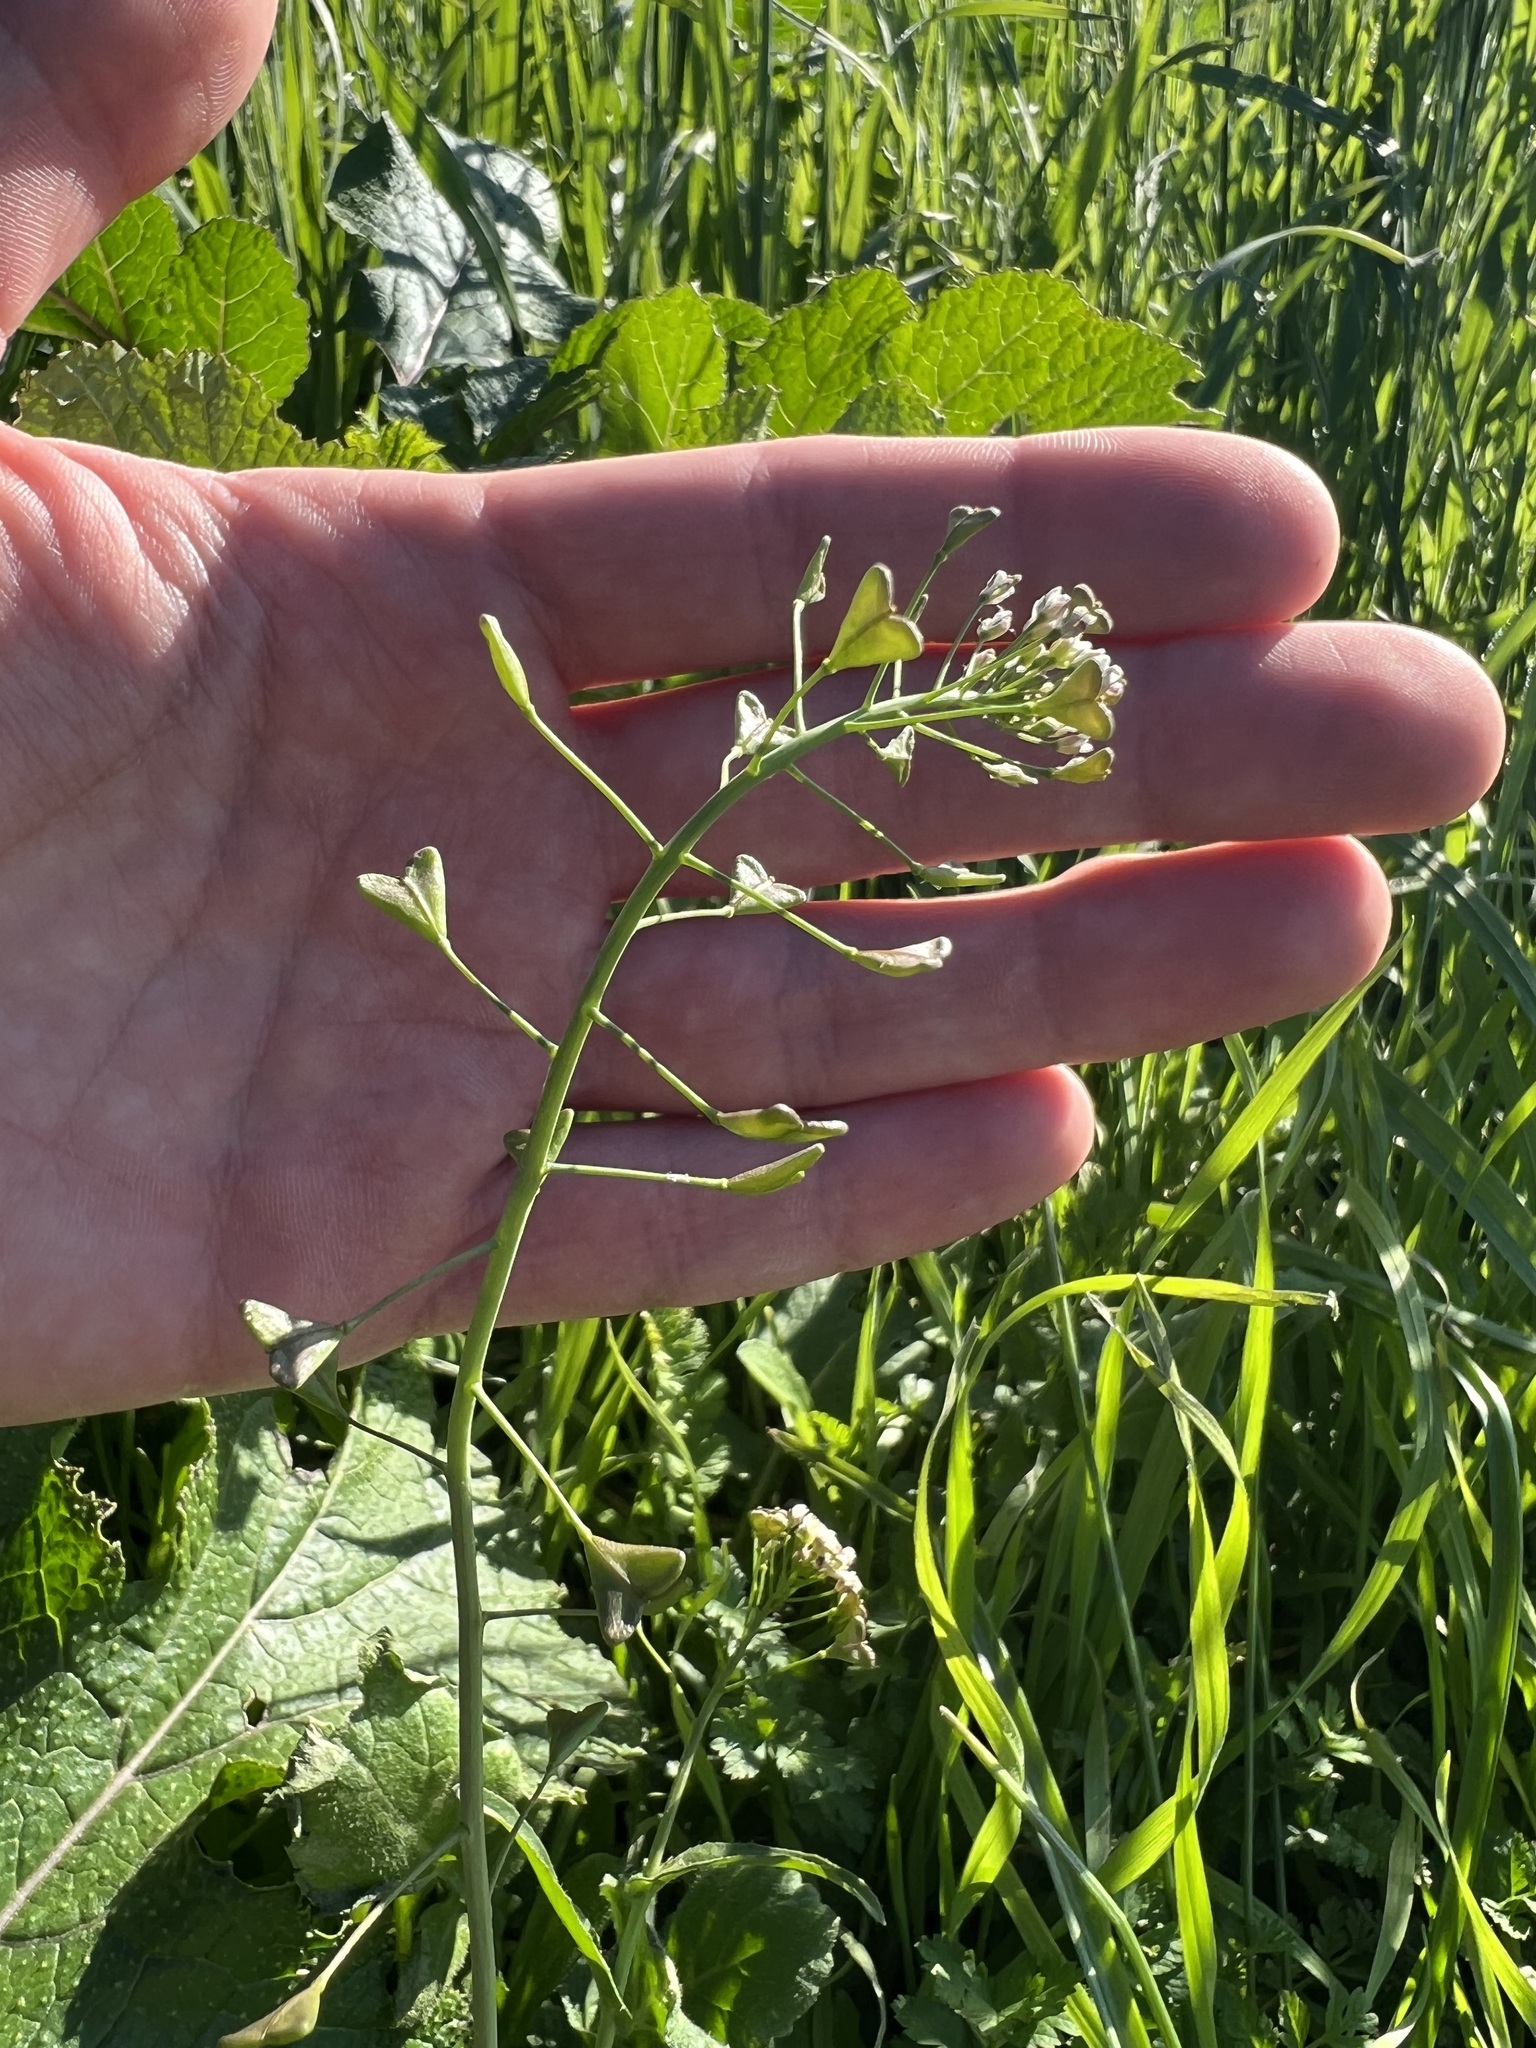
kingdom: Plantae
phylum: Tracheophyta
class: Magnoliopsida
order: Brassicales
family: Brassicaceae
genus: Capsella
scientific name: Capsella bursa-pastoris
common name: Shepherd's purse
